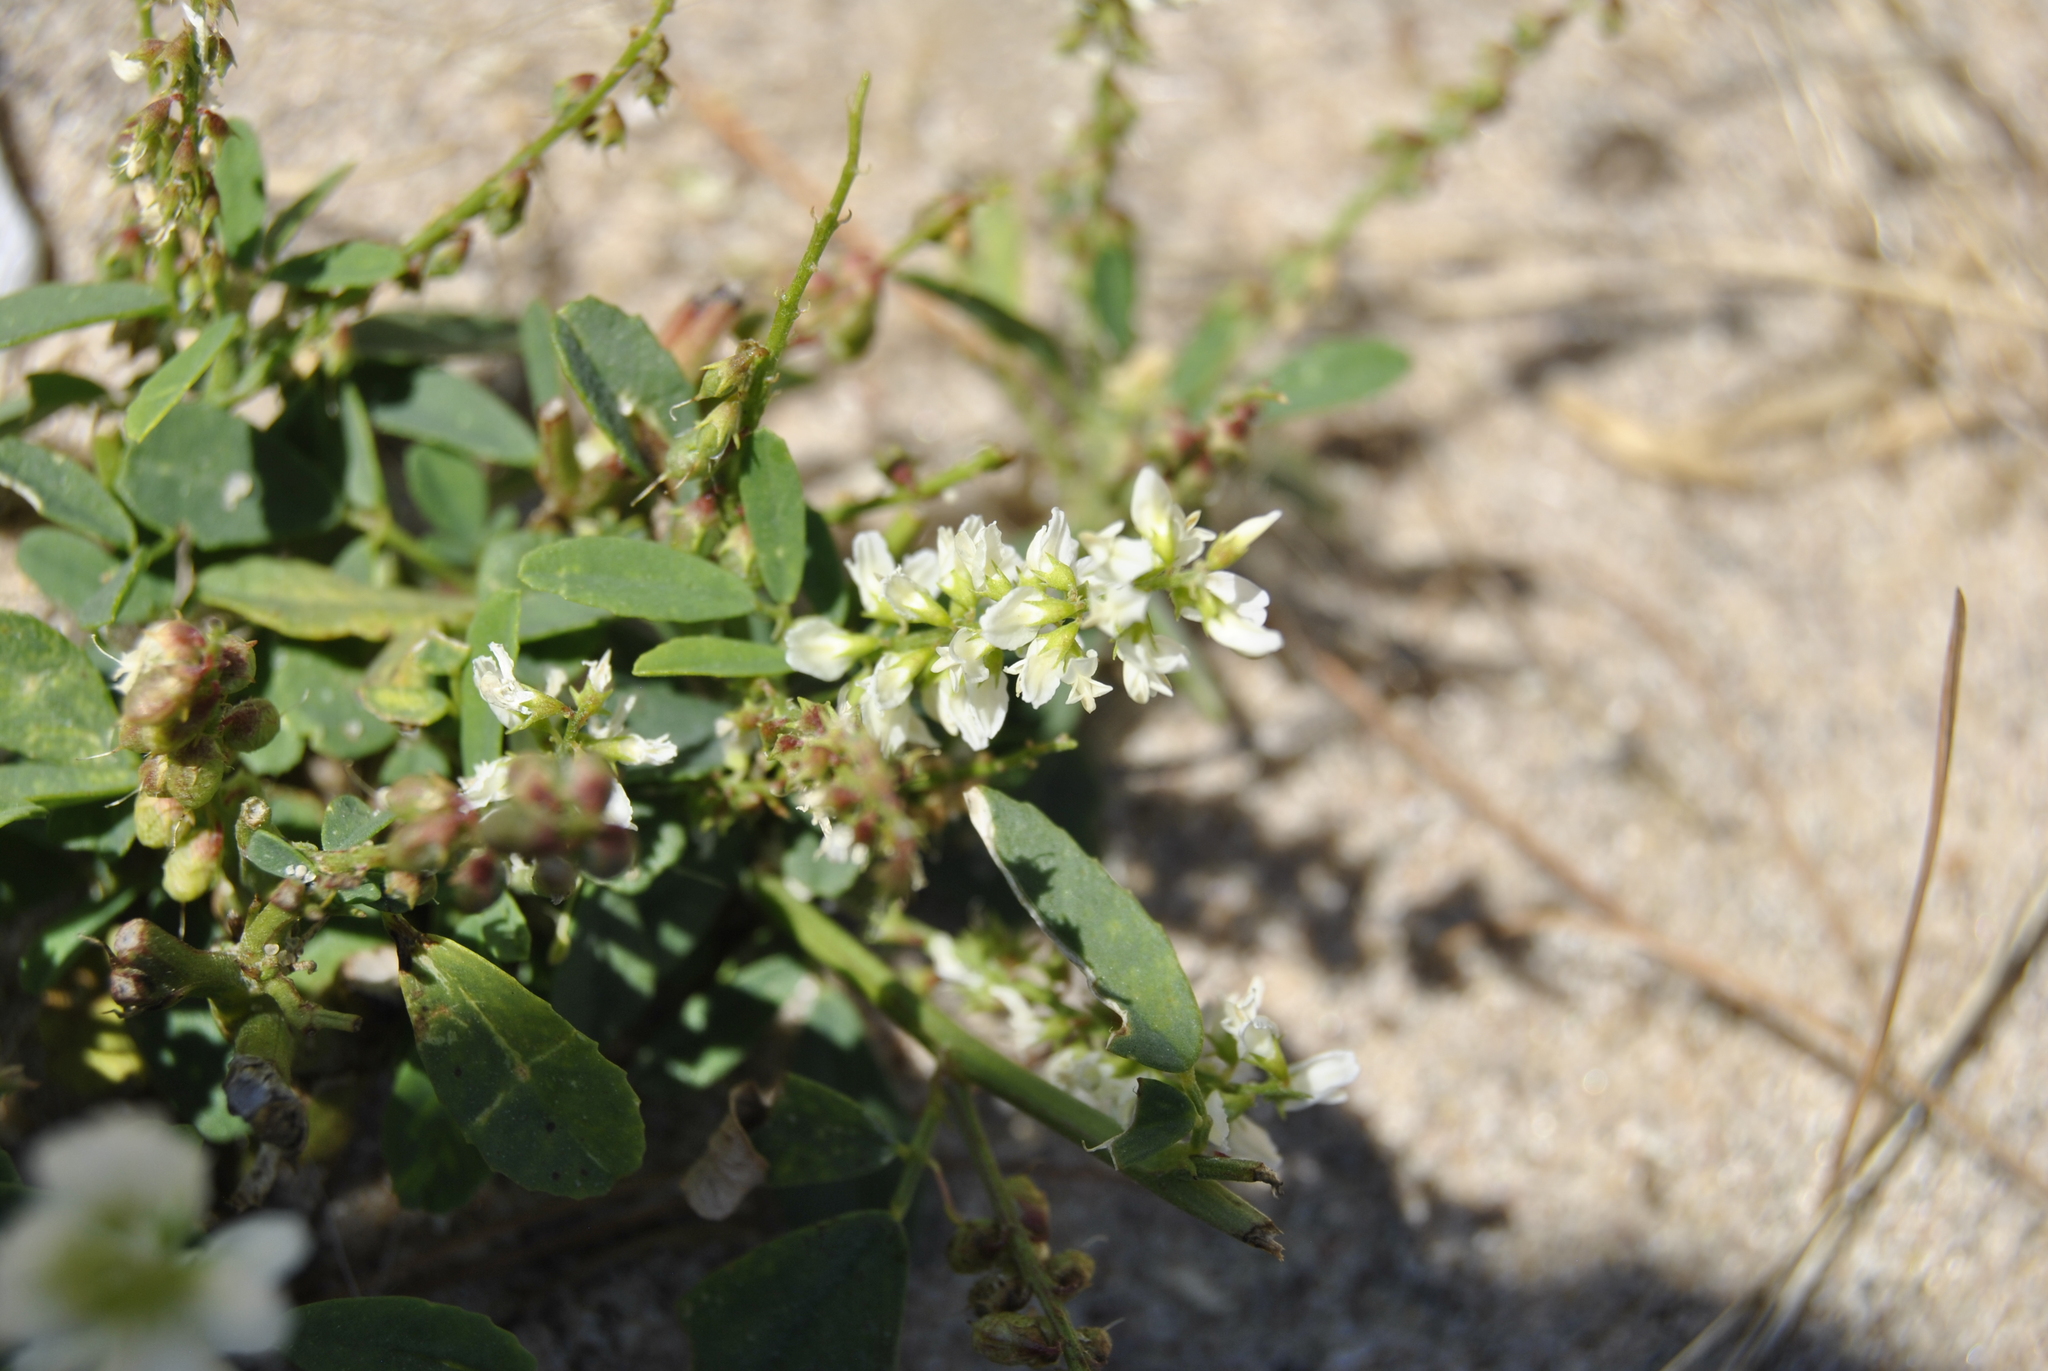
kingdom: Plantae
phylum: Tracheophyta
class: Magnoliopsida
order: Fabales
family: Fabaceae
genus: Melilotus
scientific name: Melilotus albus
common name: White melilot
